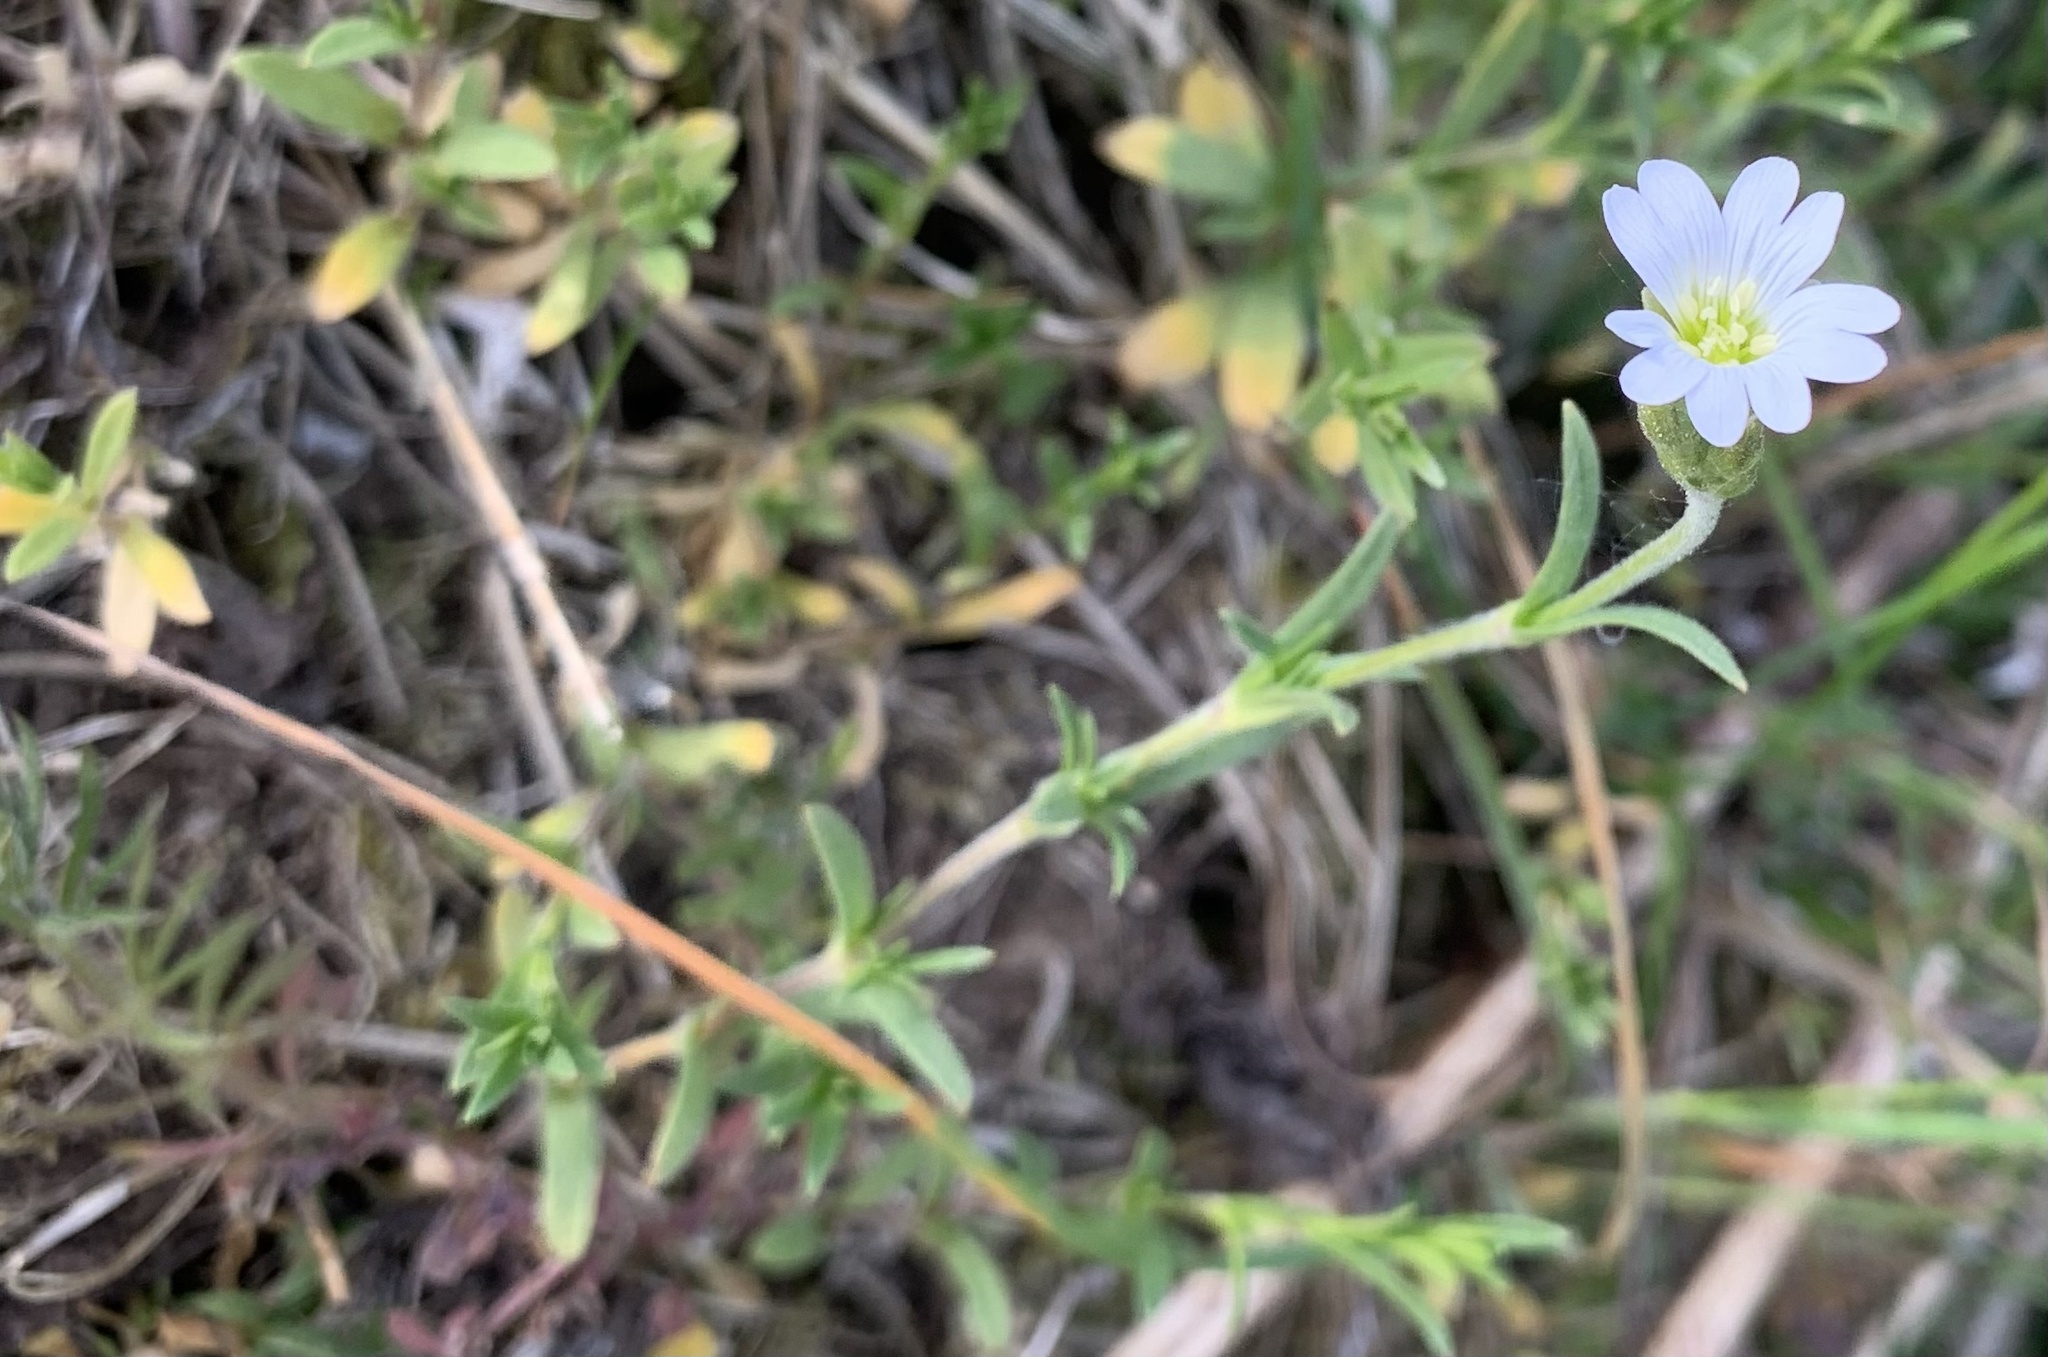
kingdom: Plantae
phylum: Tracheophyta
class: Magnoliopsida
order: Caryophyllales
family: Caryophyllaceae
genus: Rabelera
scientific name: Rabelera holostea
